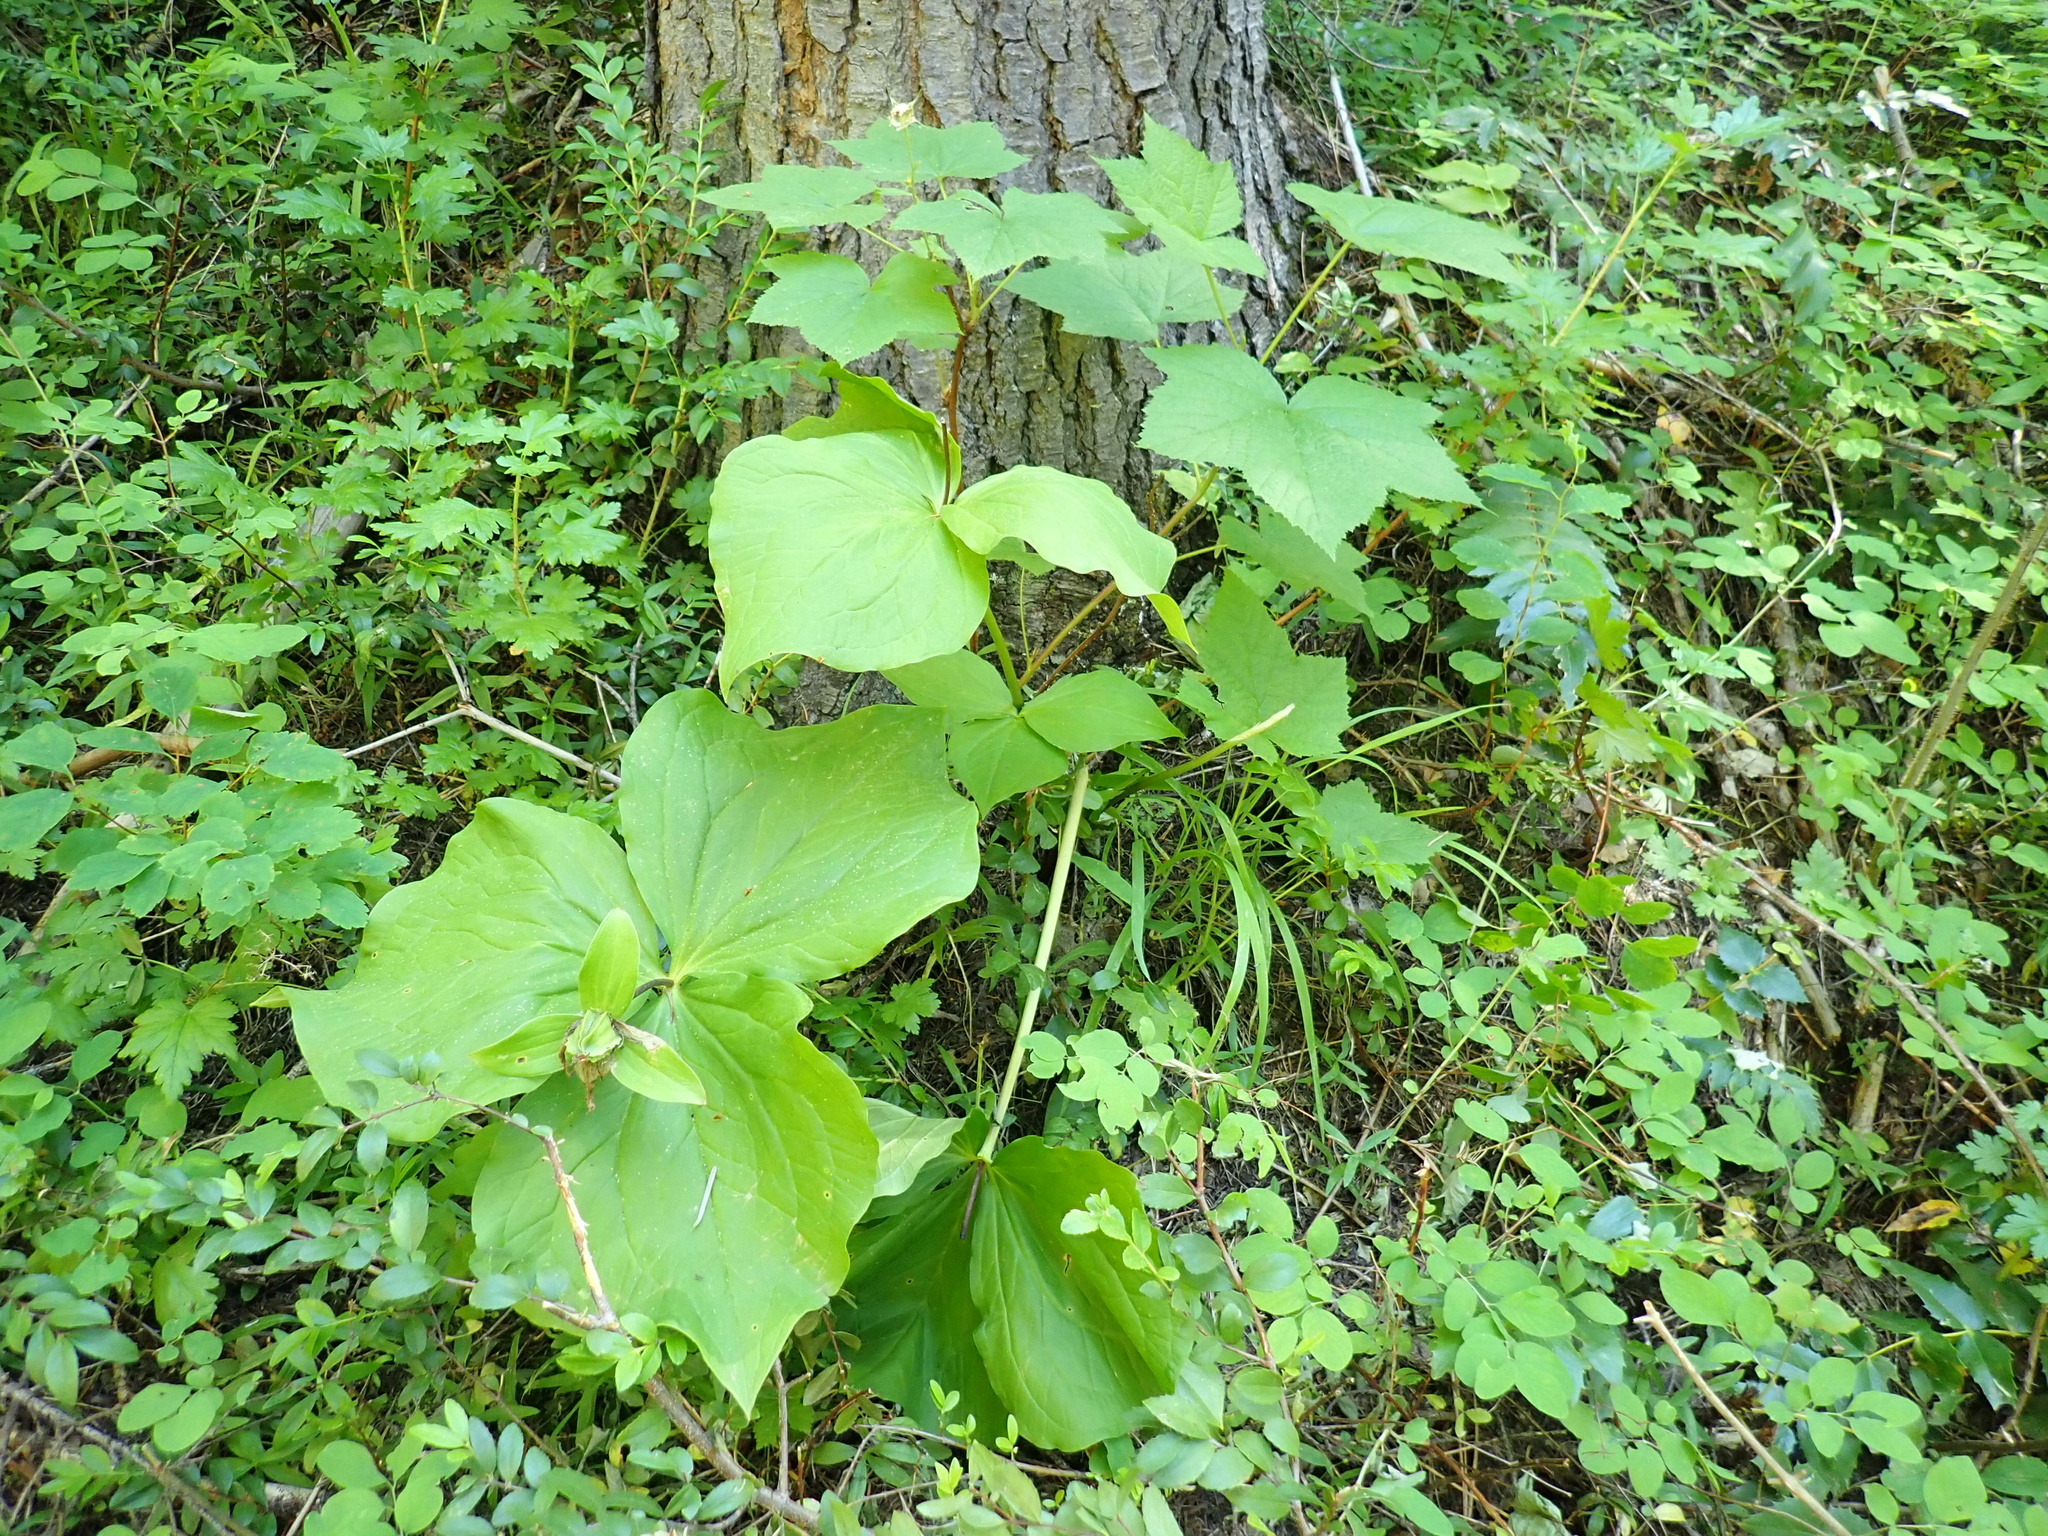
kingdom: Plantae
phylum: Tracheophyta
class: Liliopsida
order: Liliales
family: Melanthiaceae
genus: Trillium
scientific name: Trillium ovatum
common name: Pacific trillium
